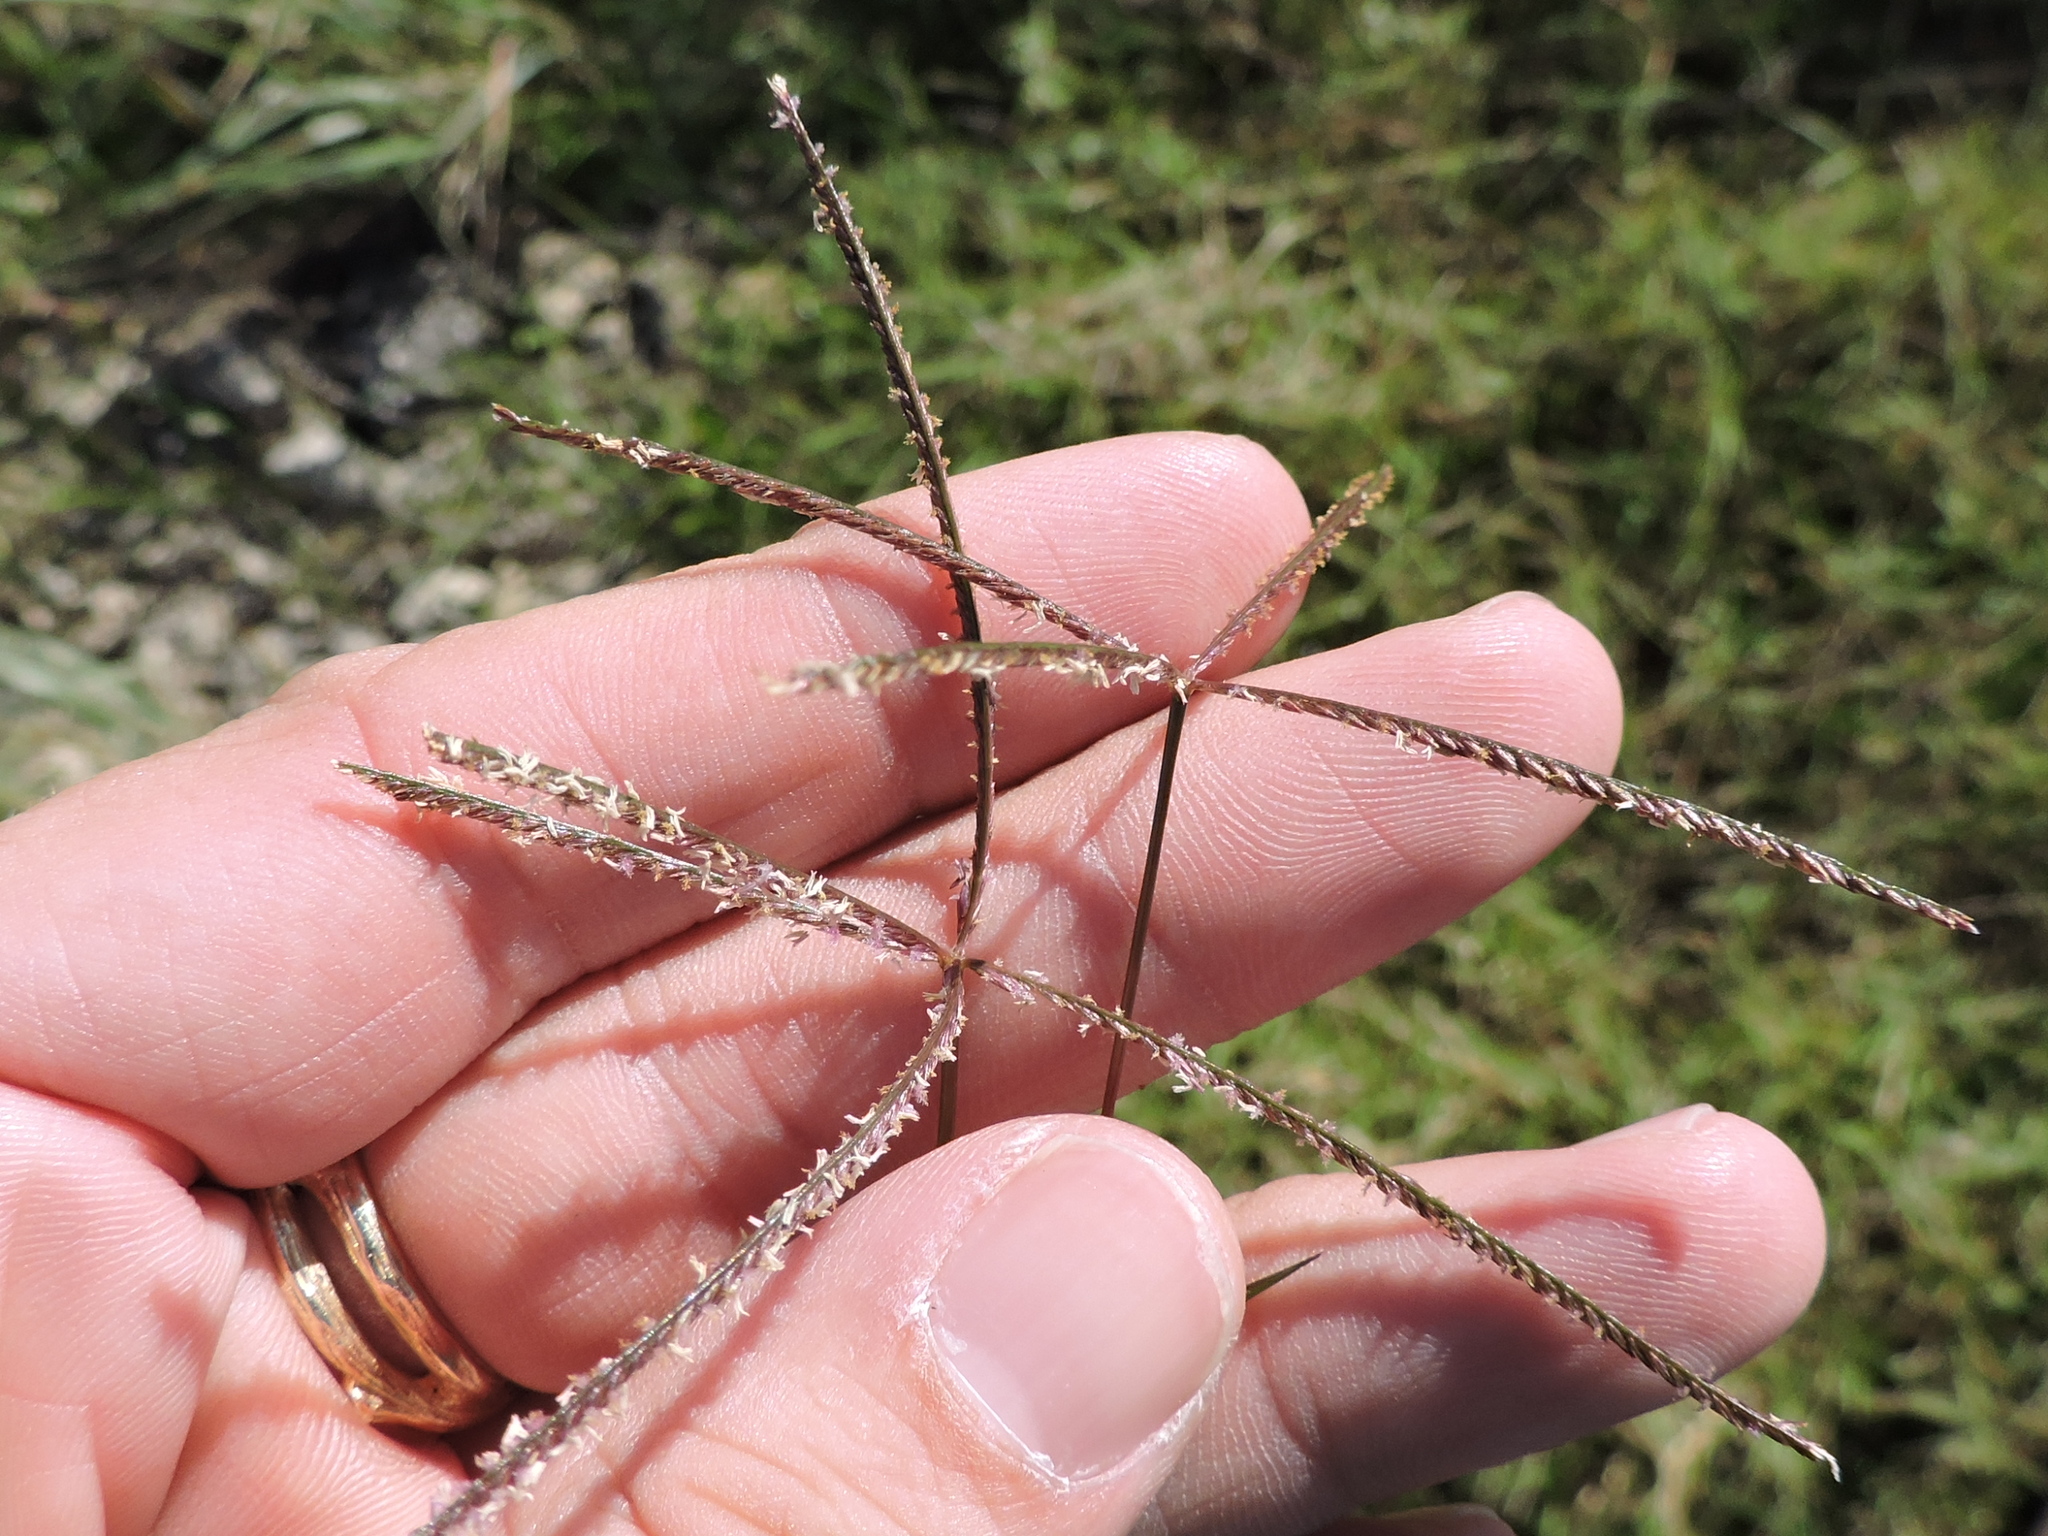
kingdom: Plantae
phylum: Tracheophyta
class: Liliopsida
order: Poales
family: Poaceae
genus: Cynodon
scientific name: Cynodon dactylon
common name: Bermuda grass
